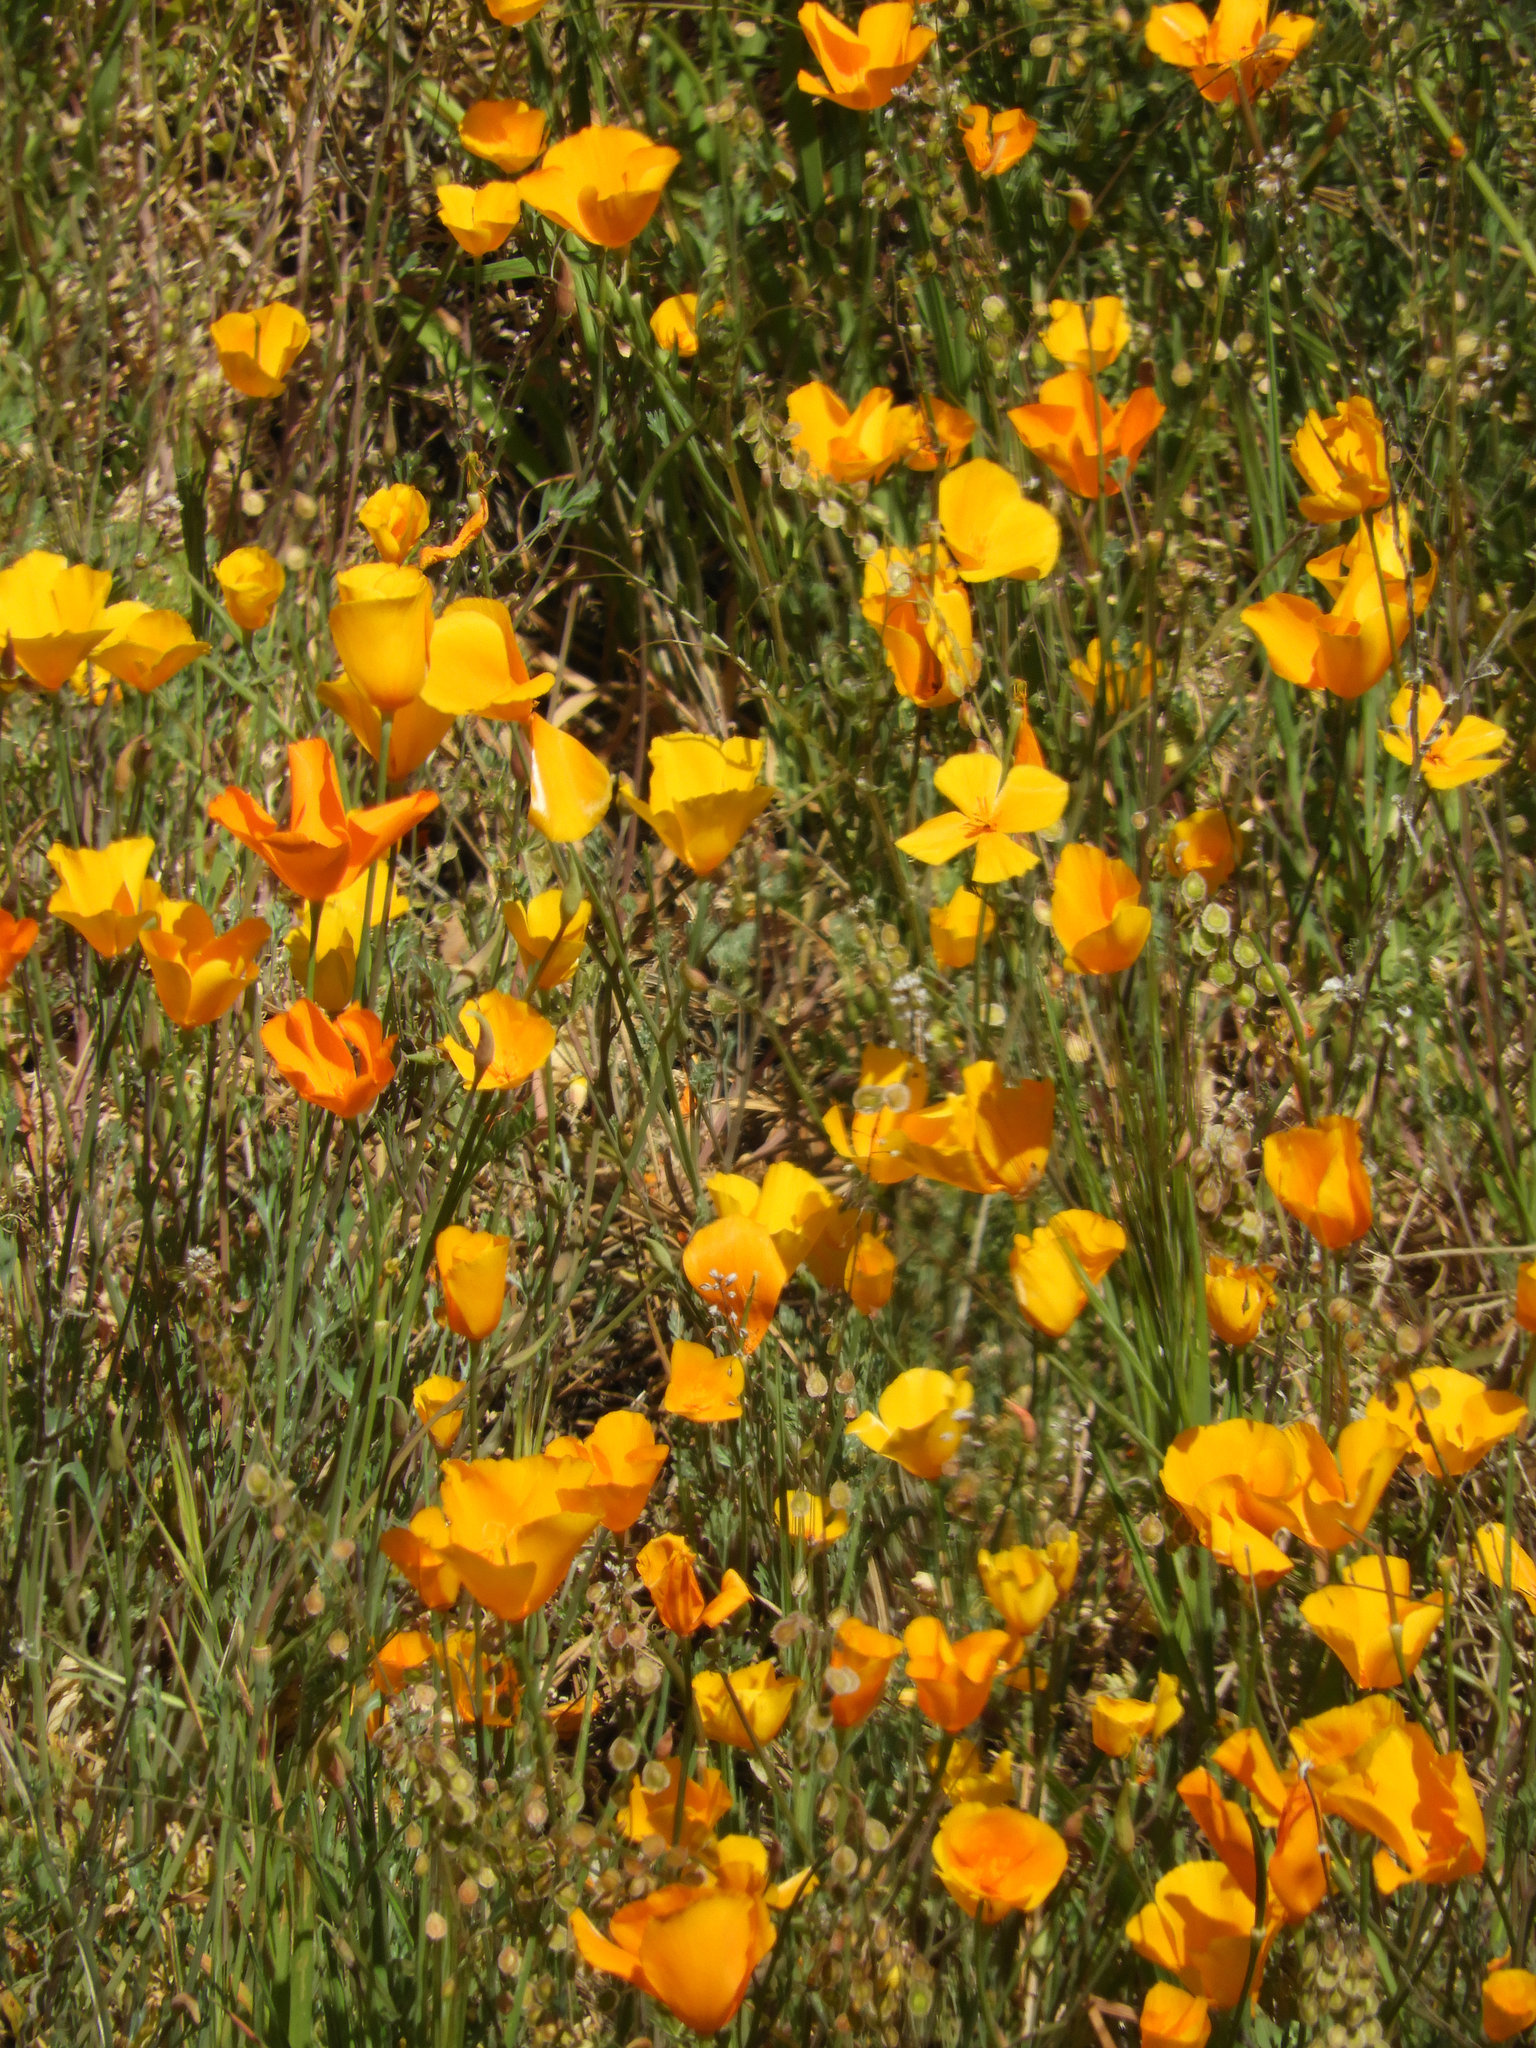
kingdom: Plantae
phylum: Tracheophyta
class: Magnoliopsida
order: Ranunculales
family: Papaveraceae
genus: Eschscholzia
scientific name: Eschscholzia caespitosa
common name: Tufted california-poppy
